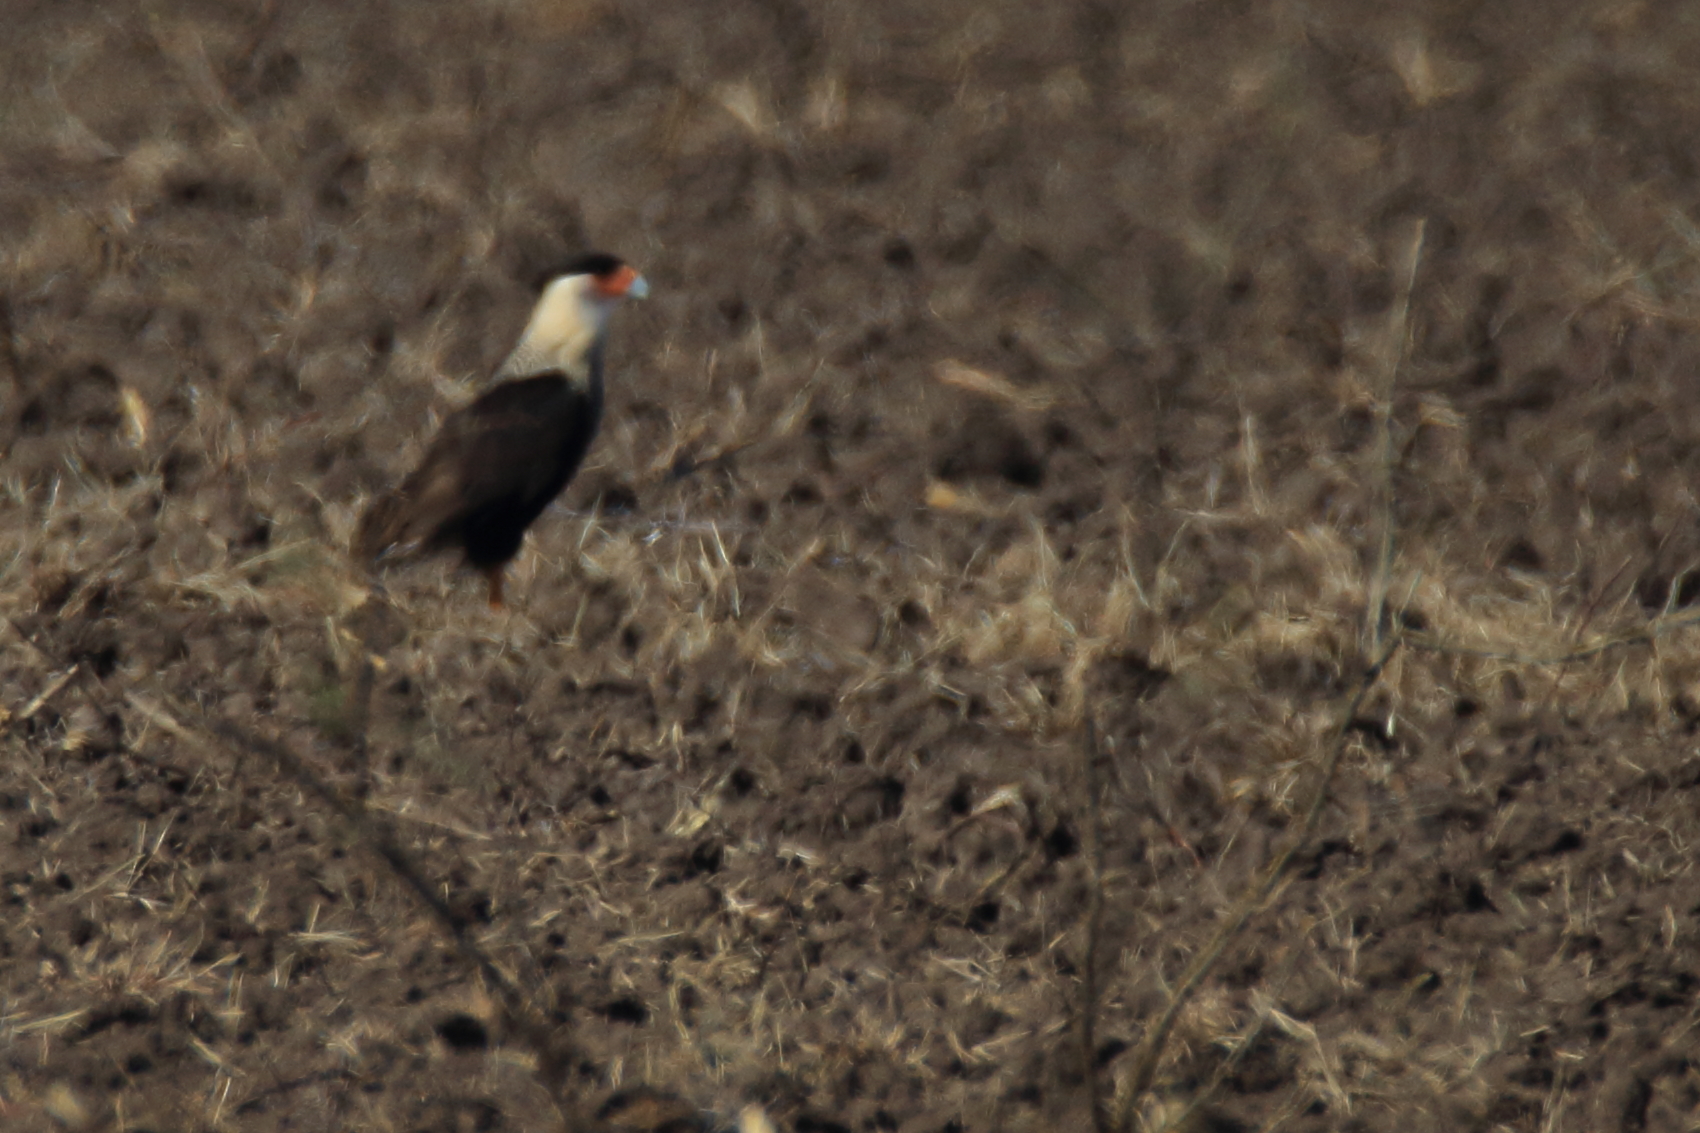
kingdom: Animalia
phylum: Chordata
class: Aves
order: Falconiformes
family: Falconidae
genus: Caracara
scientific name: Caracara plancus
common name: Southern caracara
